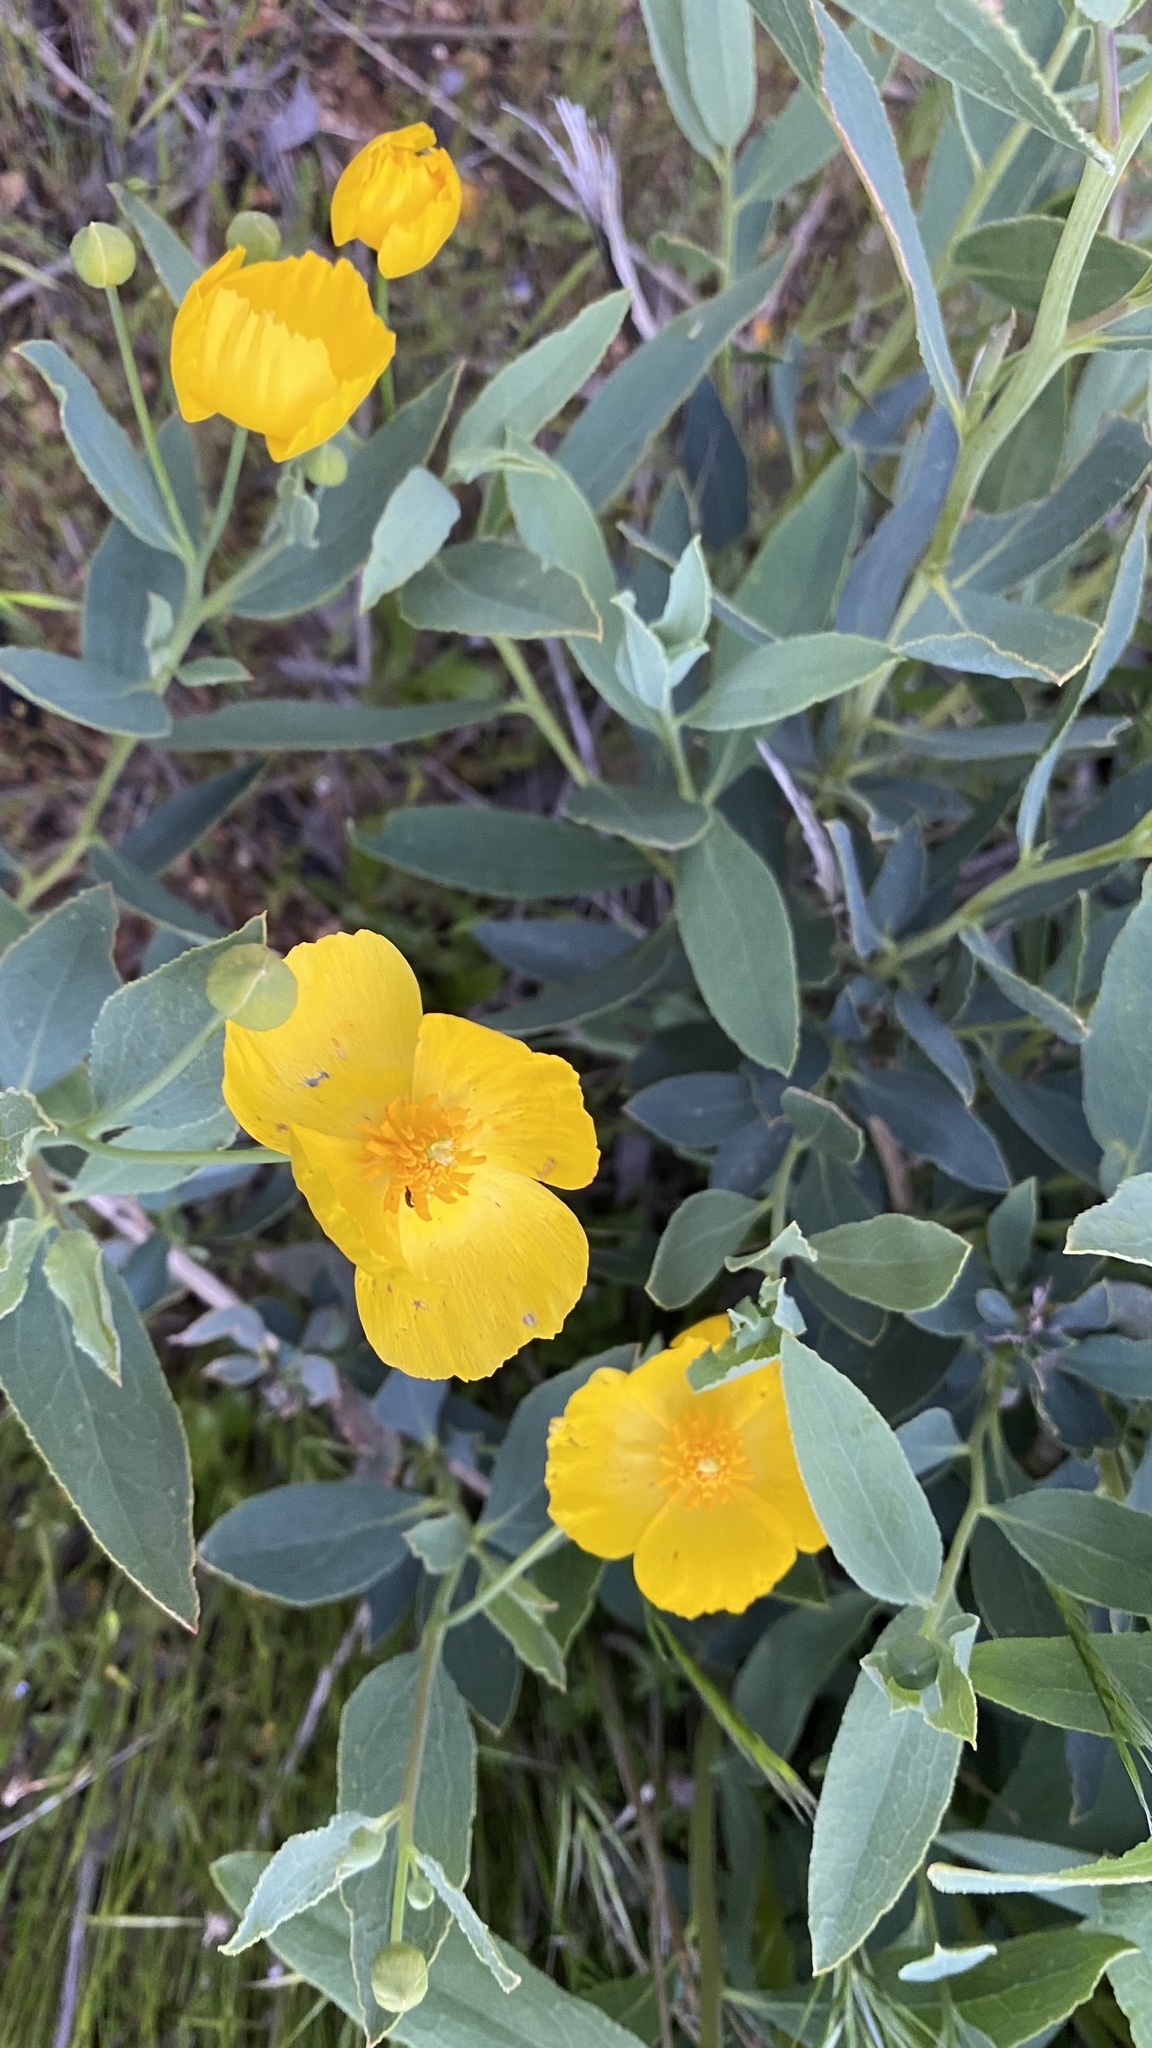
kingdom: Plantae
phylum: Tracheophyta
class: Magnoliopsida
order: Ranunculales
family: Papaveraceae
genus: Dendromecon
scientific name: Dendromecon rigida
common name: Tree poppy
